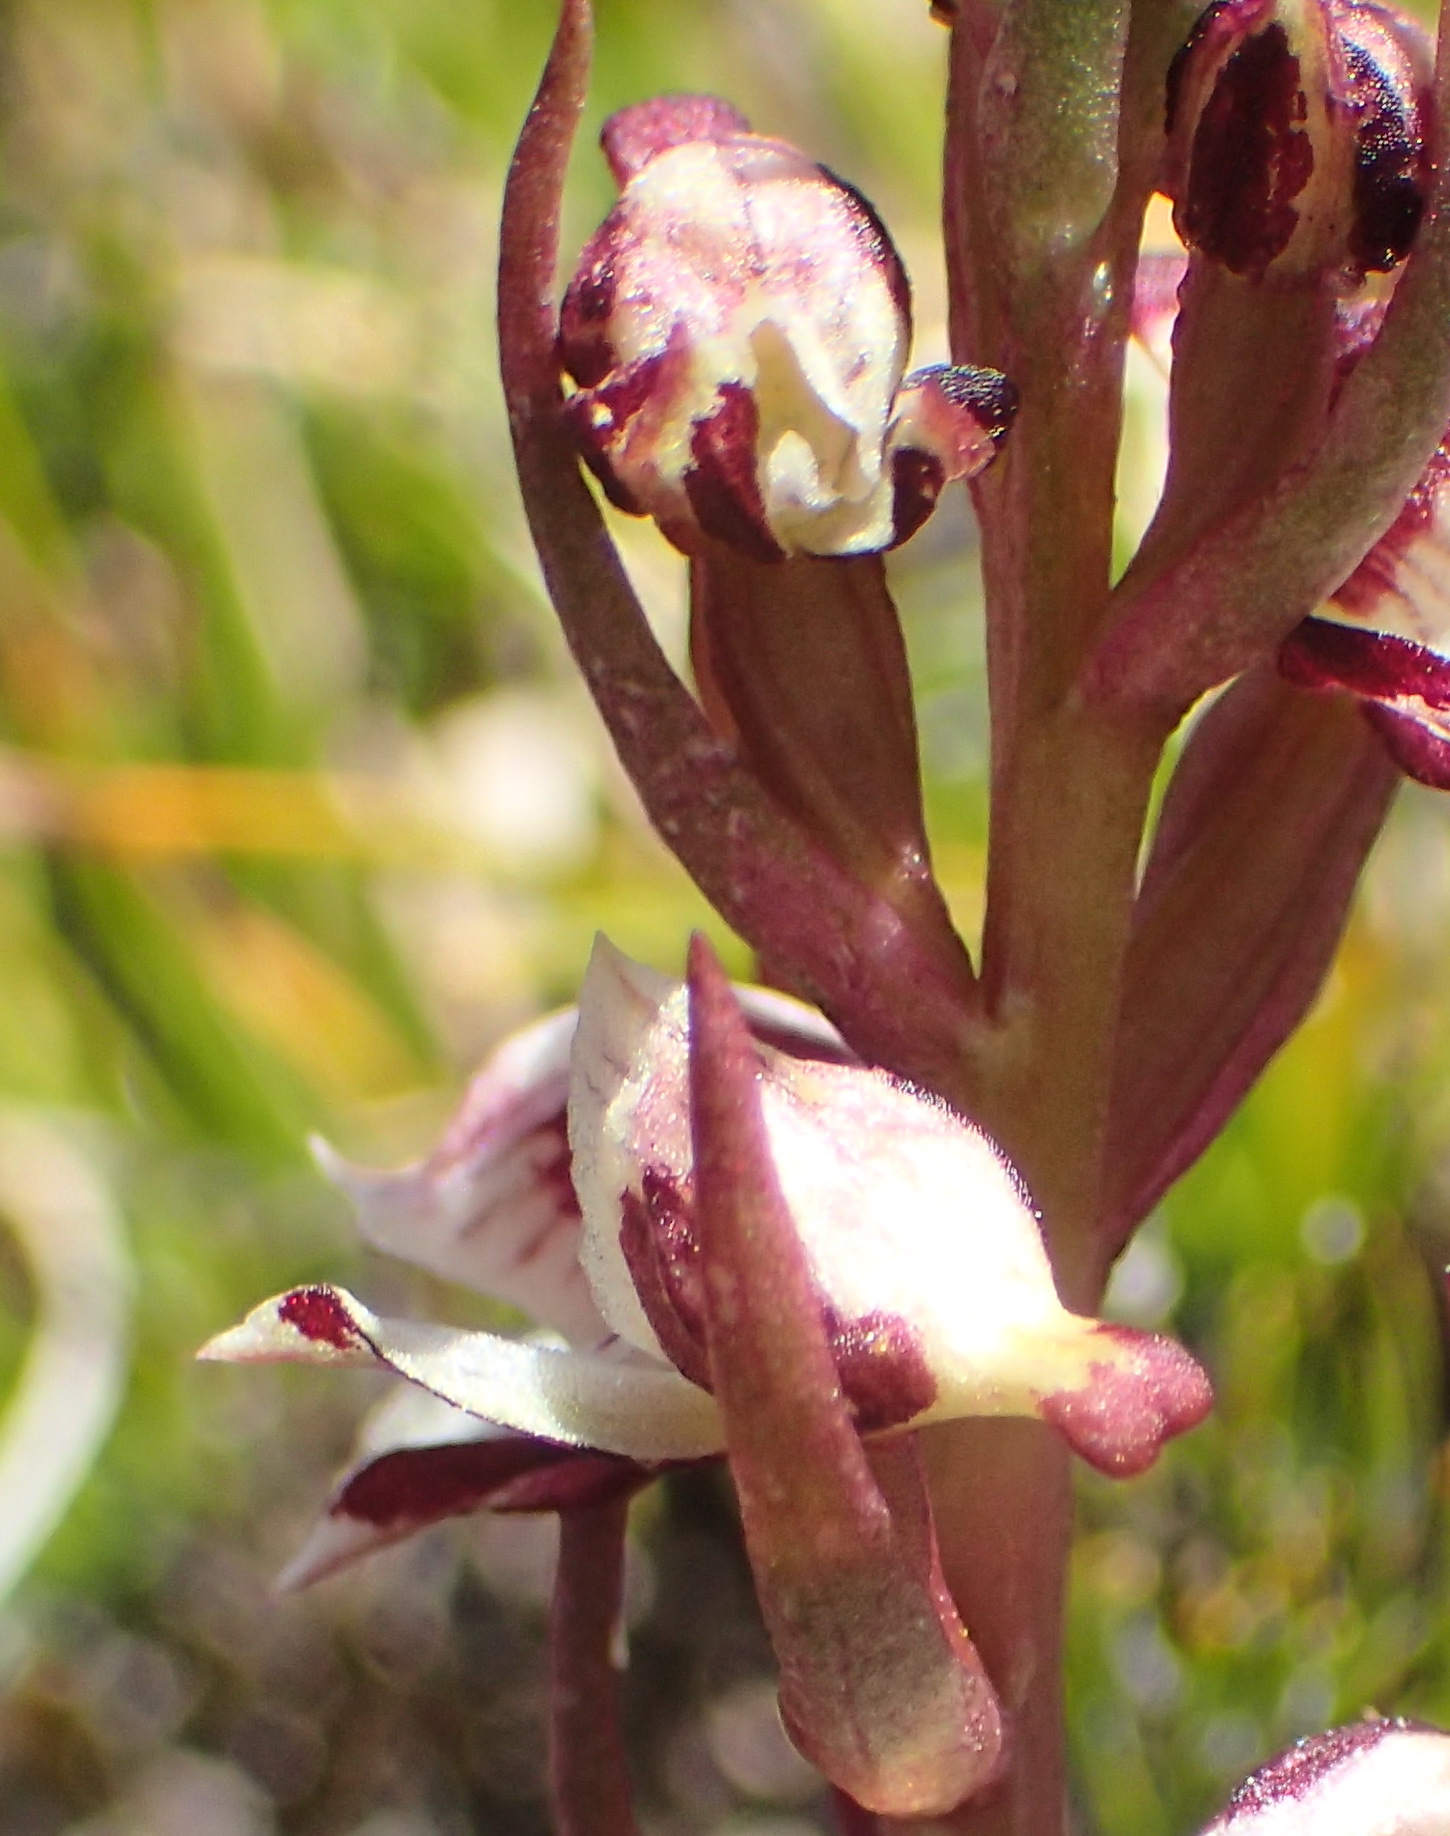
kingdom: Plantae
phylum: Tracheophyta
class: Liliopsida
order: Asparagales
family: Orchidaceae
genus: Disa
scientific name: Disa ocellata
